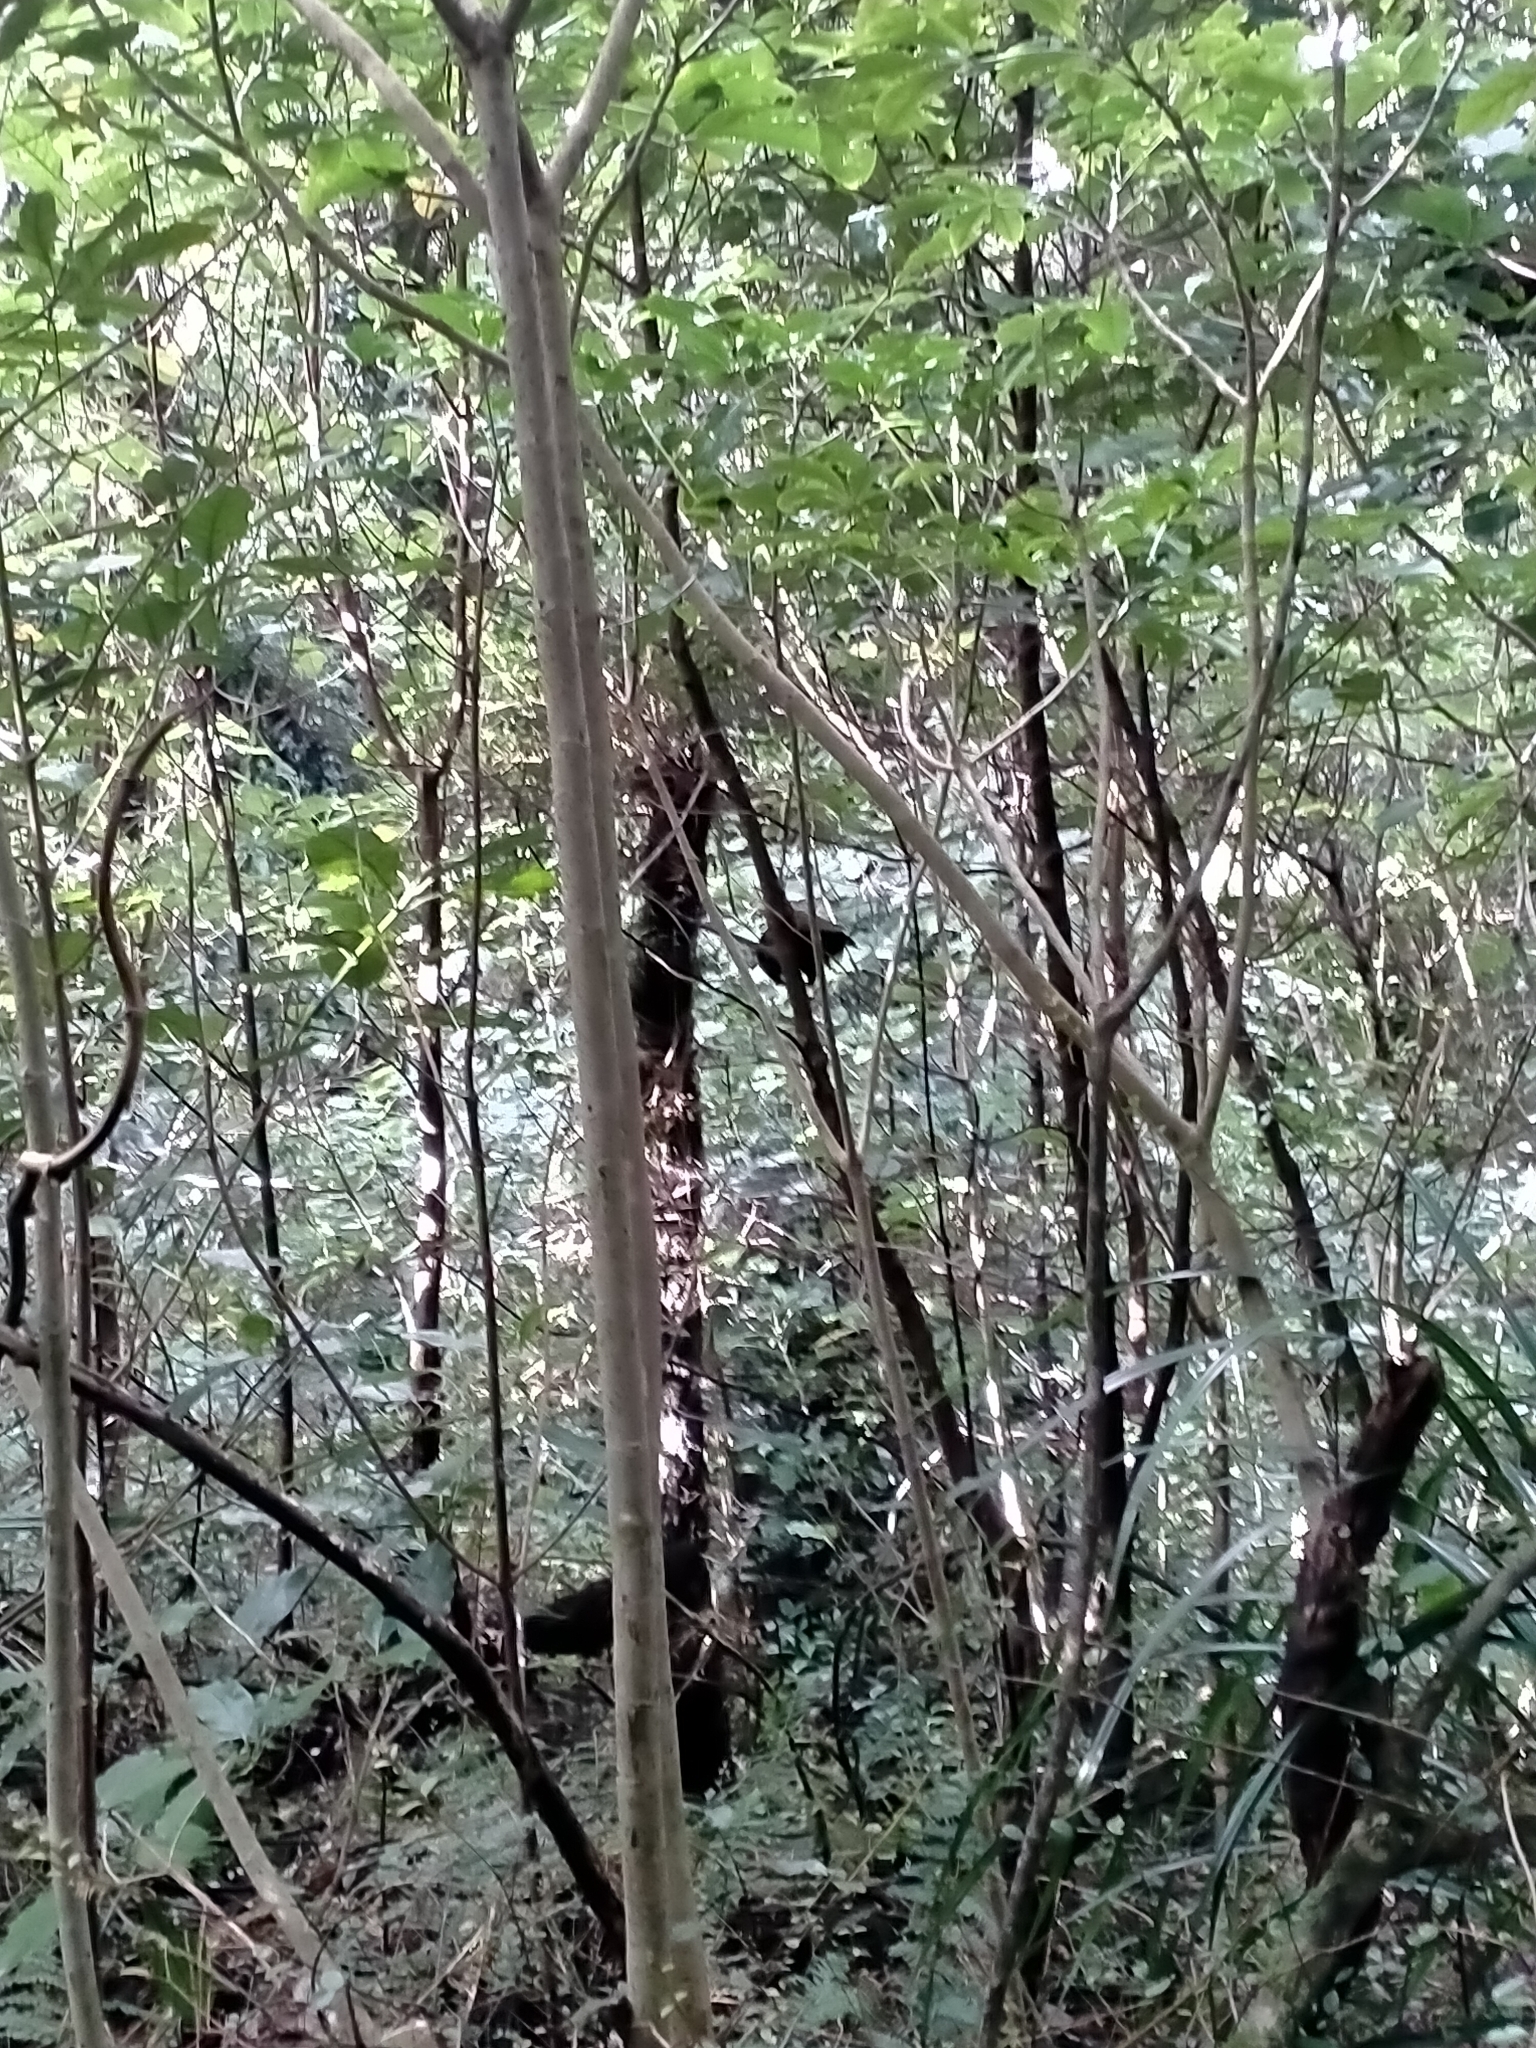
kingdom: Animalia
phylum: Chordata
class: Aves
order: Psittaciformes
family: Psittacidae
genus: Nestor
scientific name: Nestor meridionalis
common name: New zealand kaka
